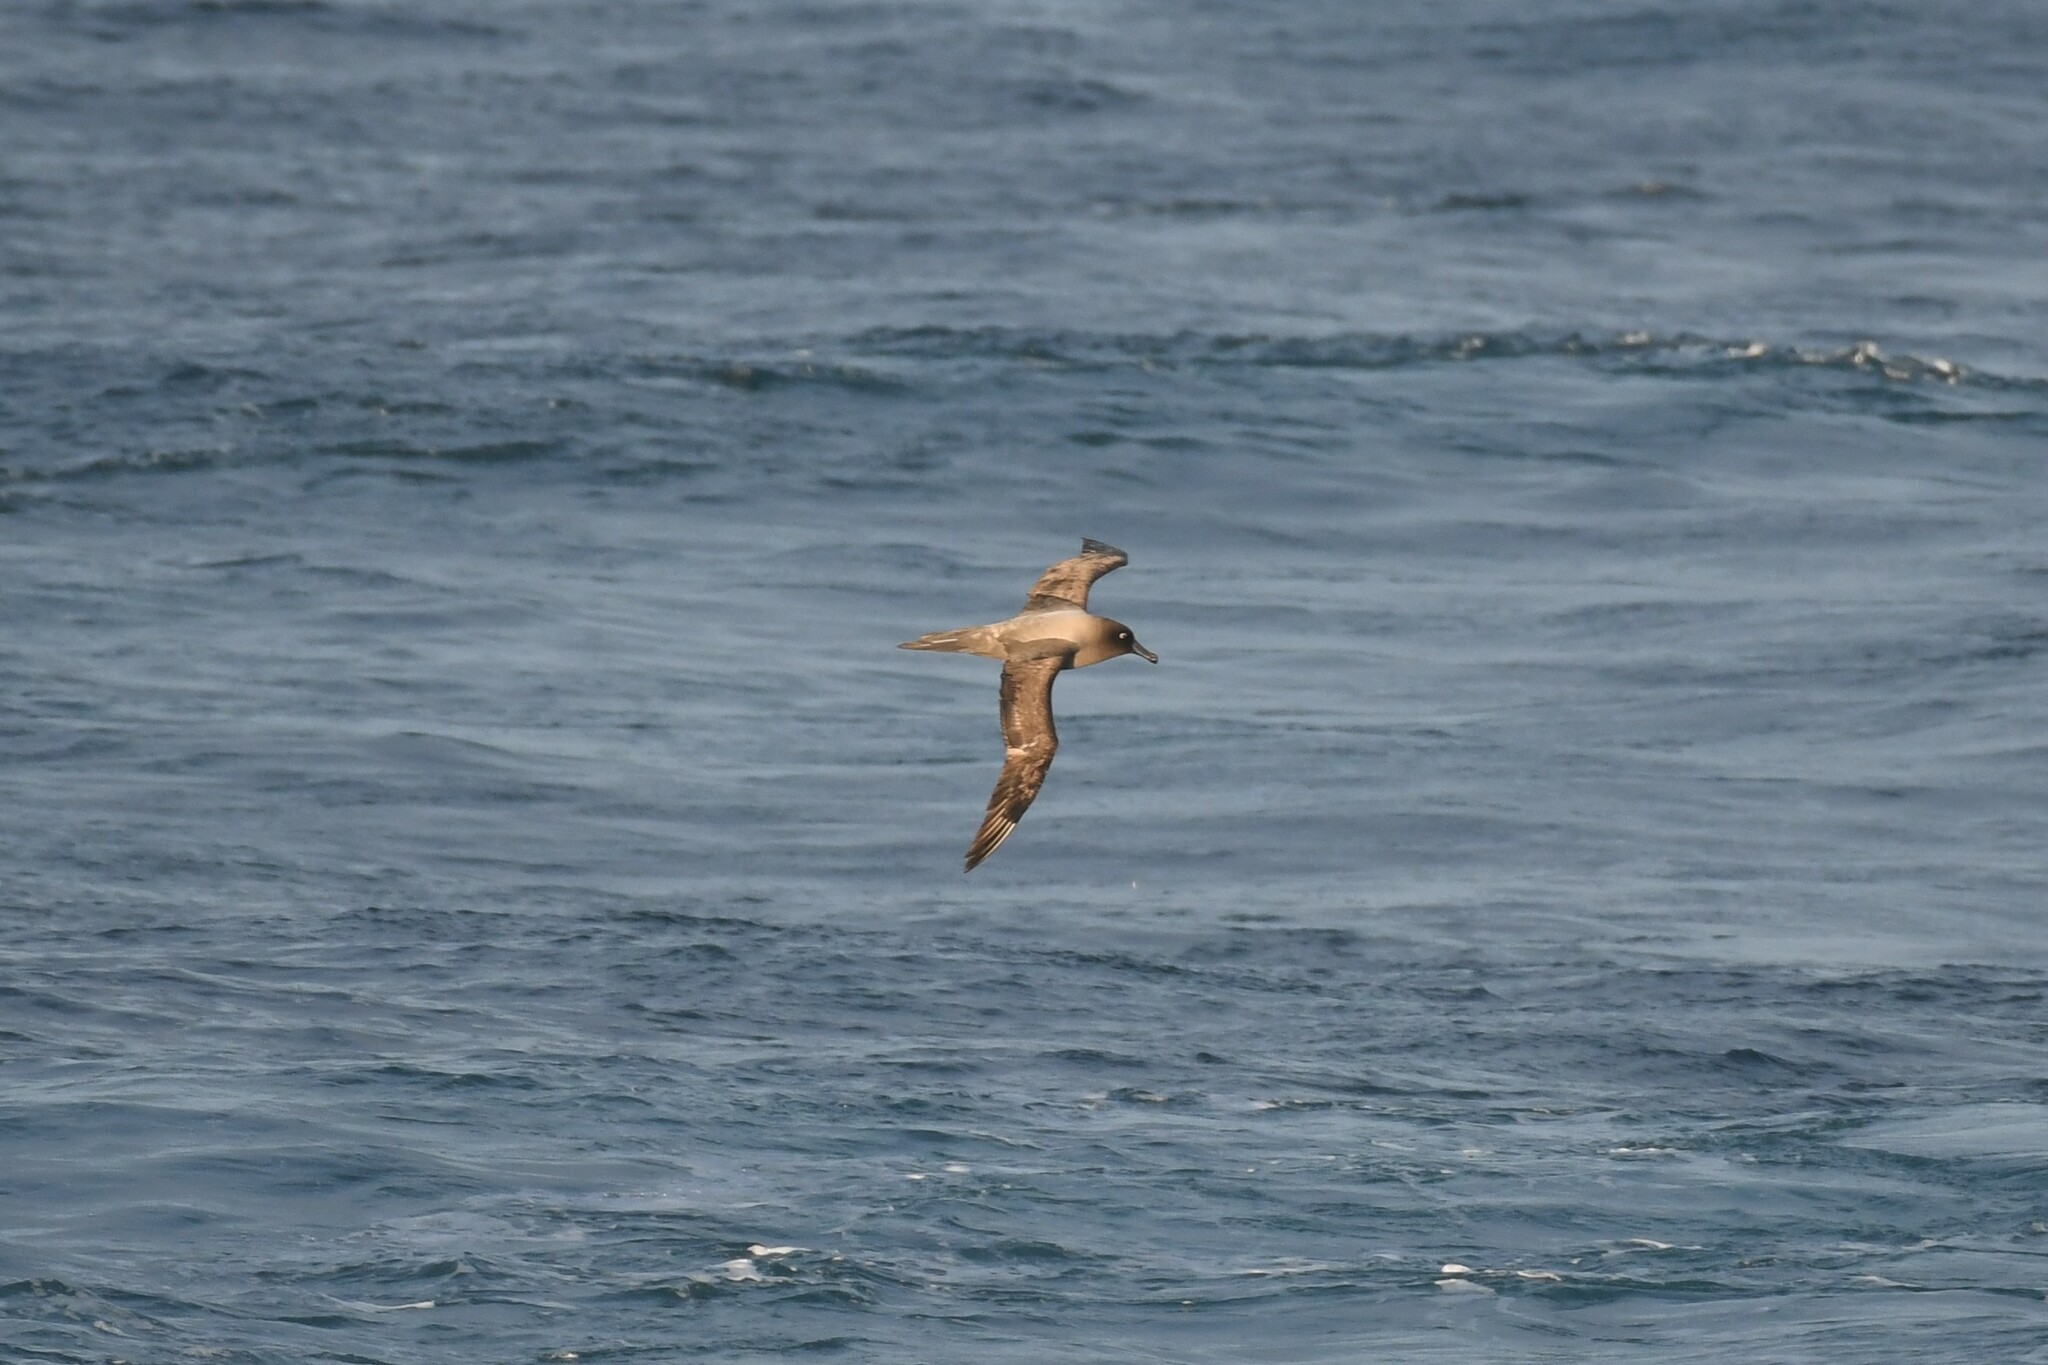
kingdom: Animalia
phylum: Chordata
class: Aves
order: Procellariiformes
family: Diomedeidae
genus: Phoebetria
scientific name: Phoebetria palpebrata
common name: Light-mantled albatross
